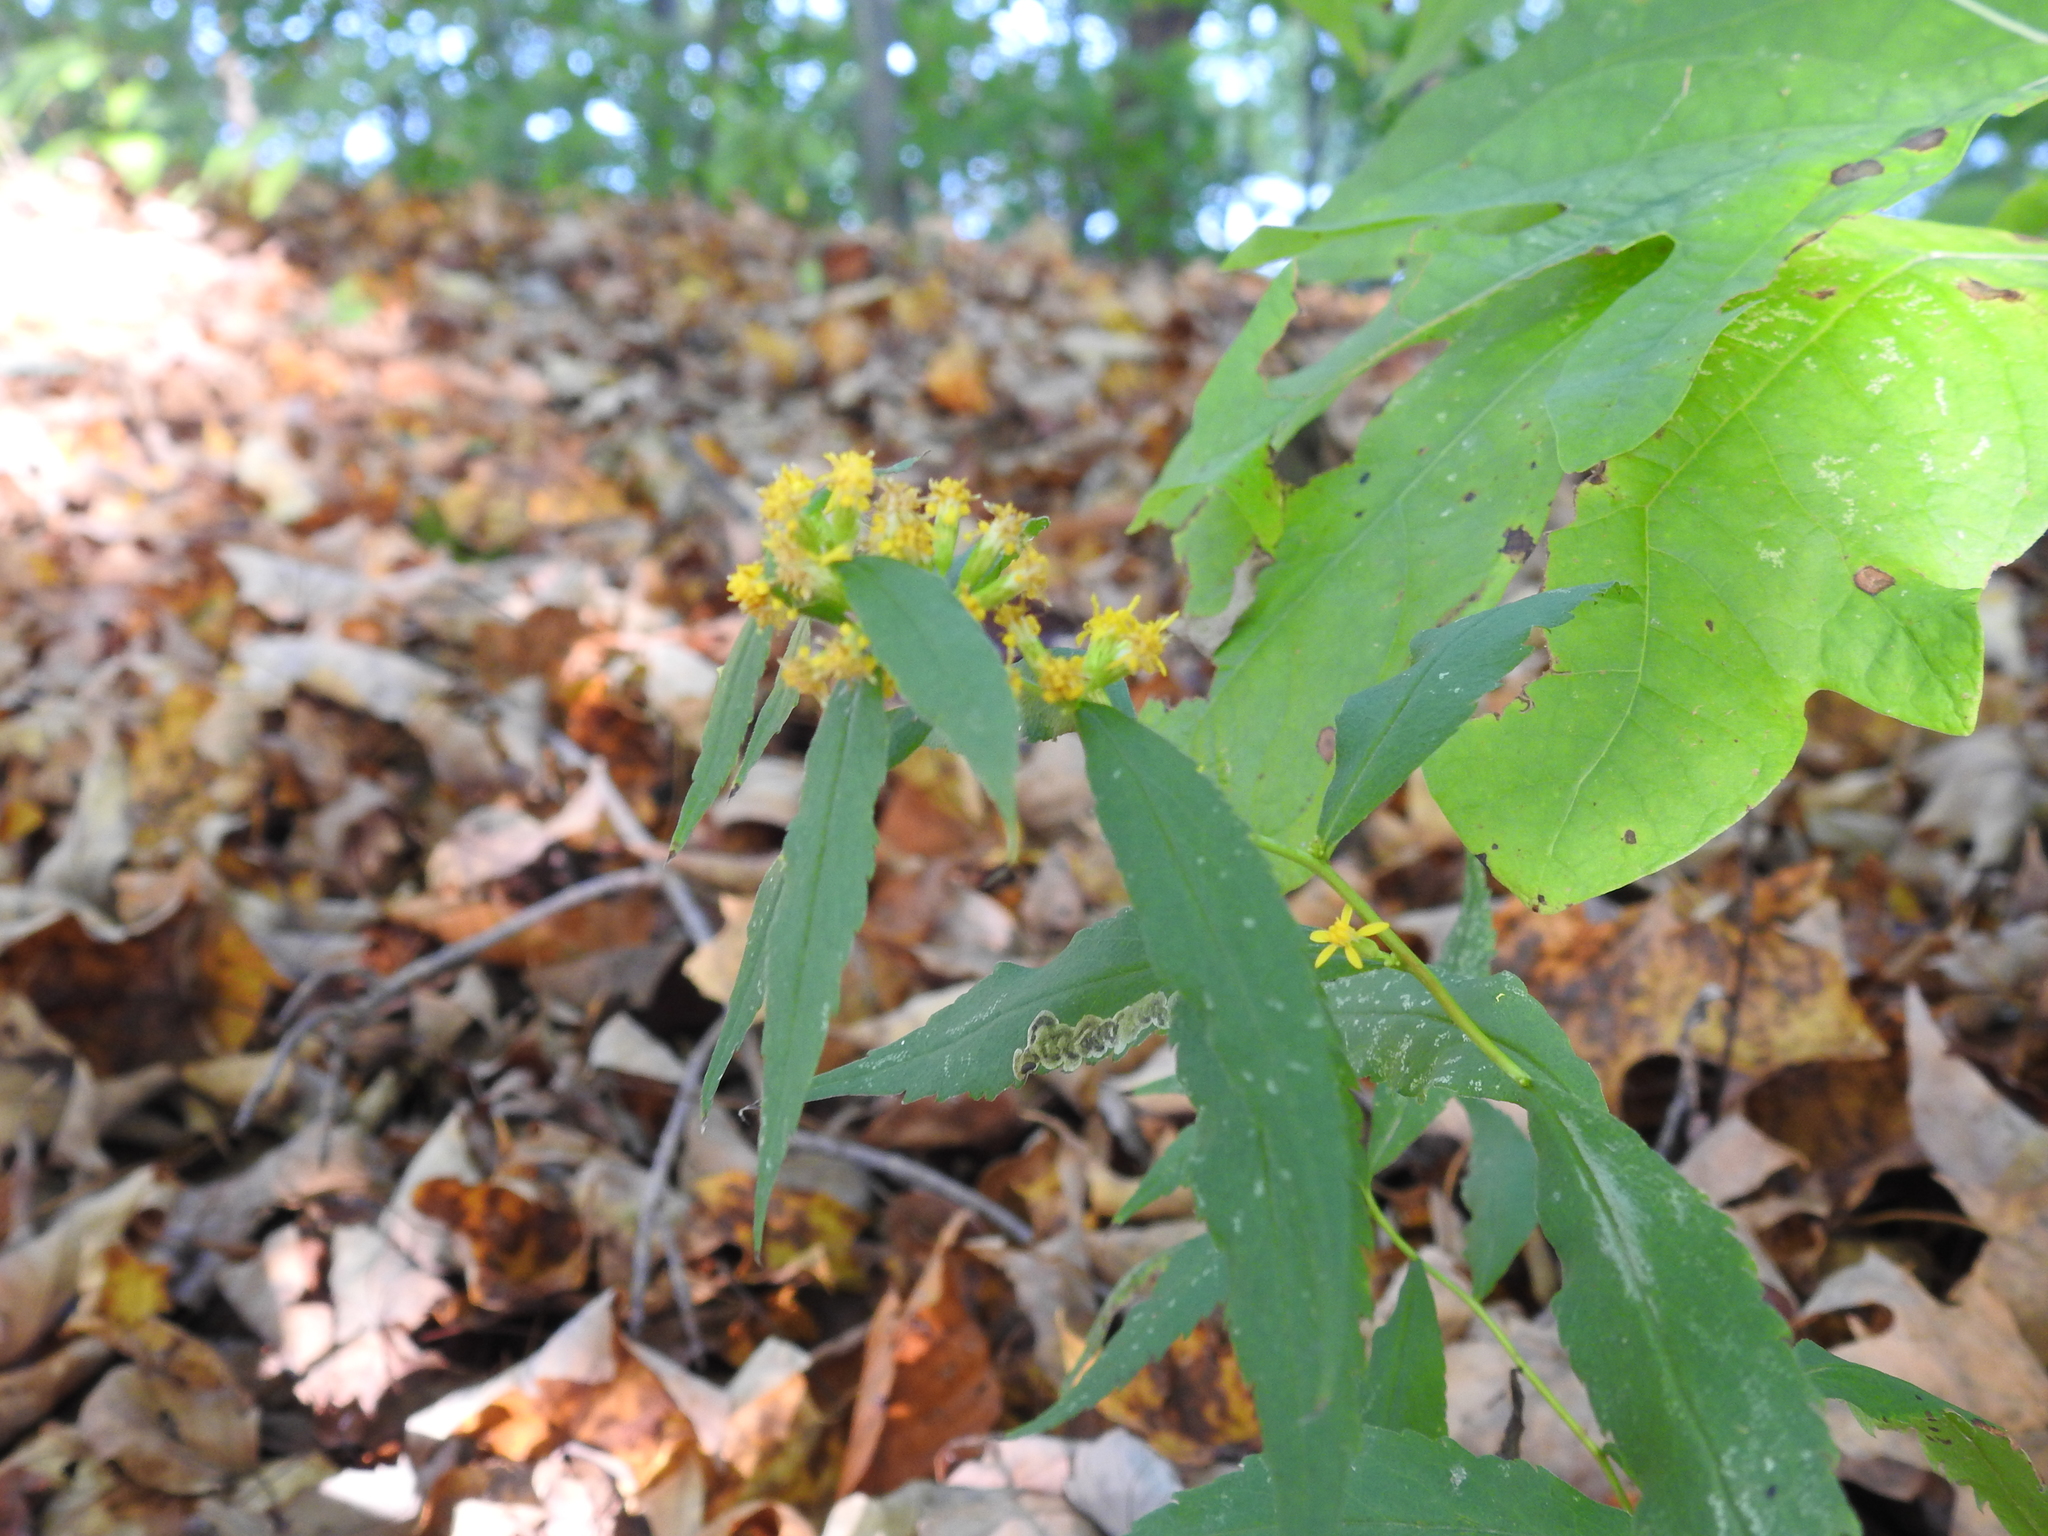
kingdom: Plantae
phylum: Tracheophyta
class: Magnoliopsida
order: Asterales
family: Asteraceae
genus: Solidago
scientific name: Solidago caesia
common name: Woodland goldenrod
